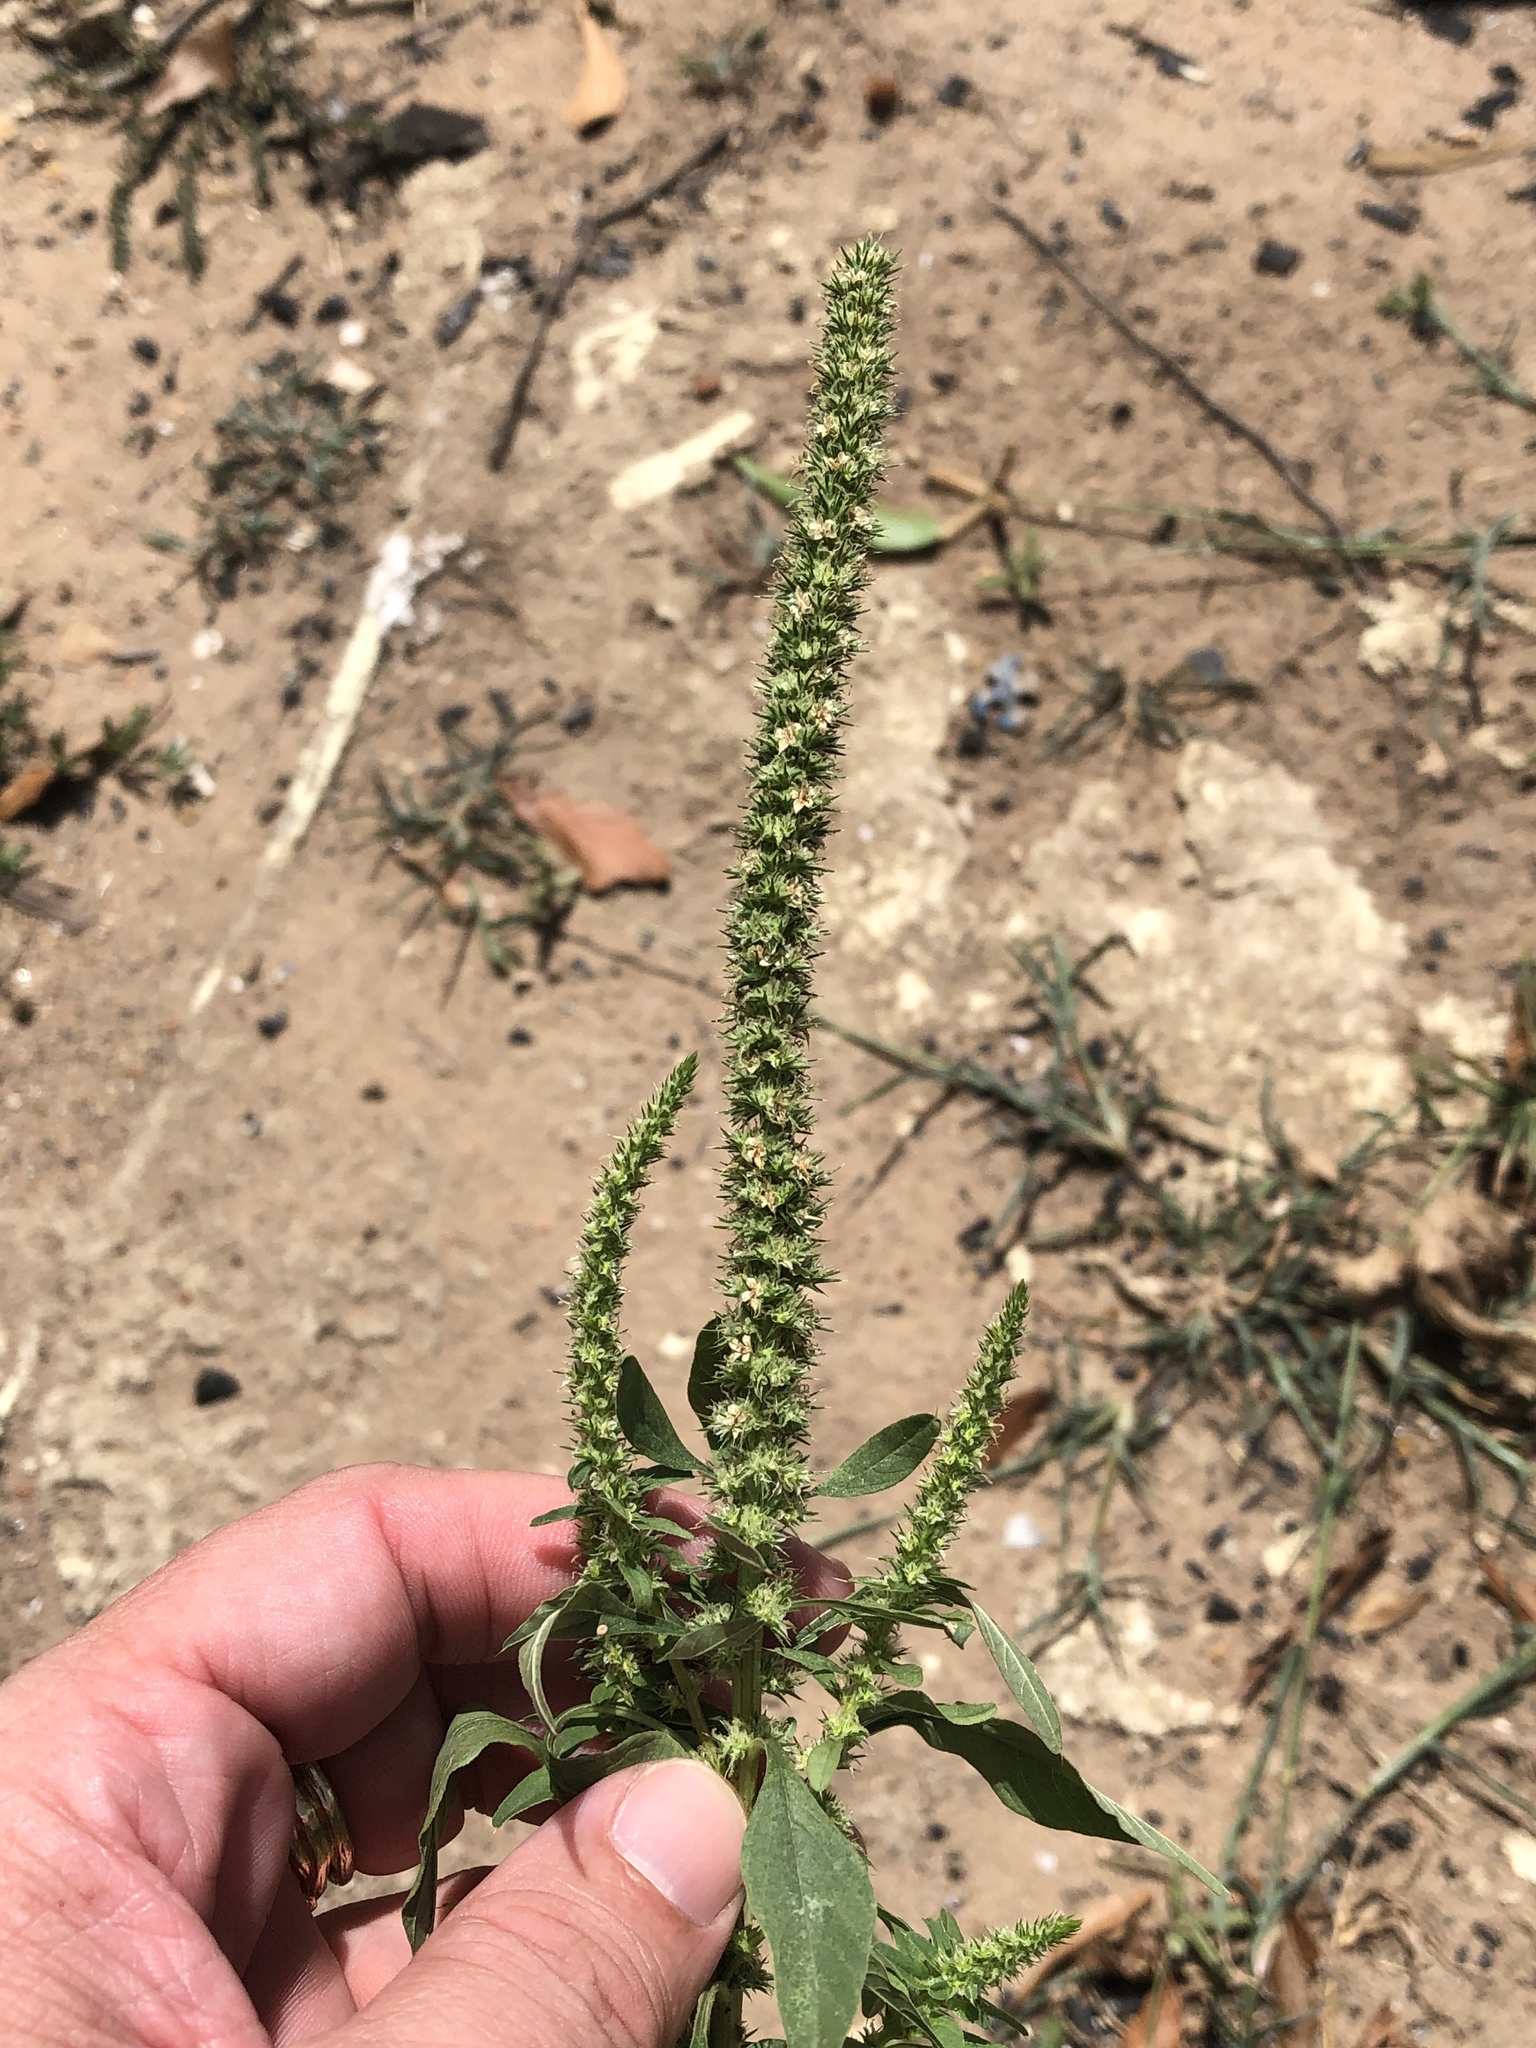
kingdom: Plantae
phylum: Tracheophyta
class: Magnoliopsida
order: Caryophyllales
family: Amaranthaceae
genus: Amaranthus
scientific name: Amaranthus palmeri
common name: Dioecious amaranth
